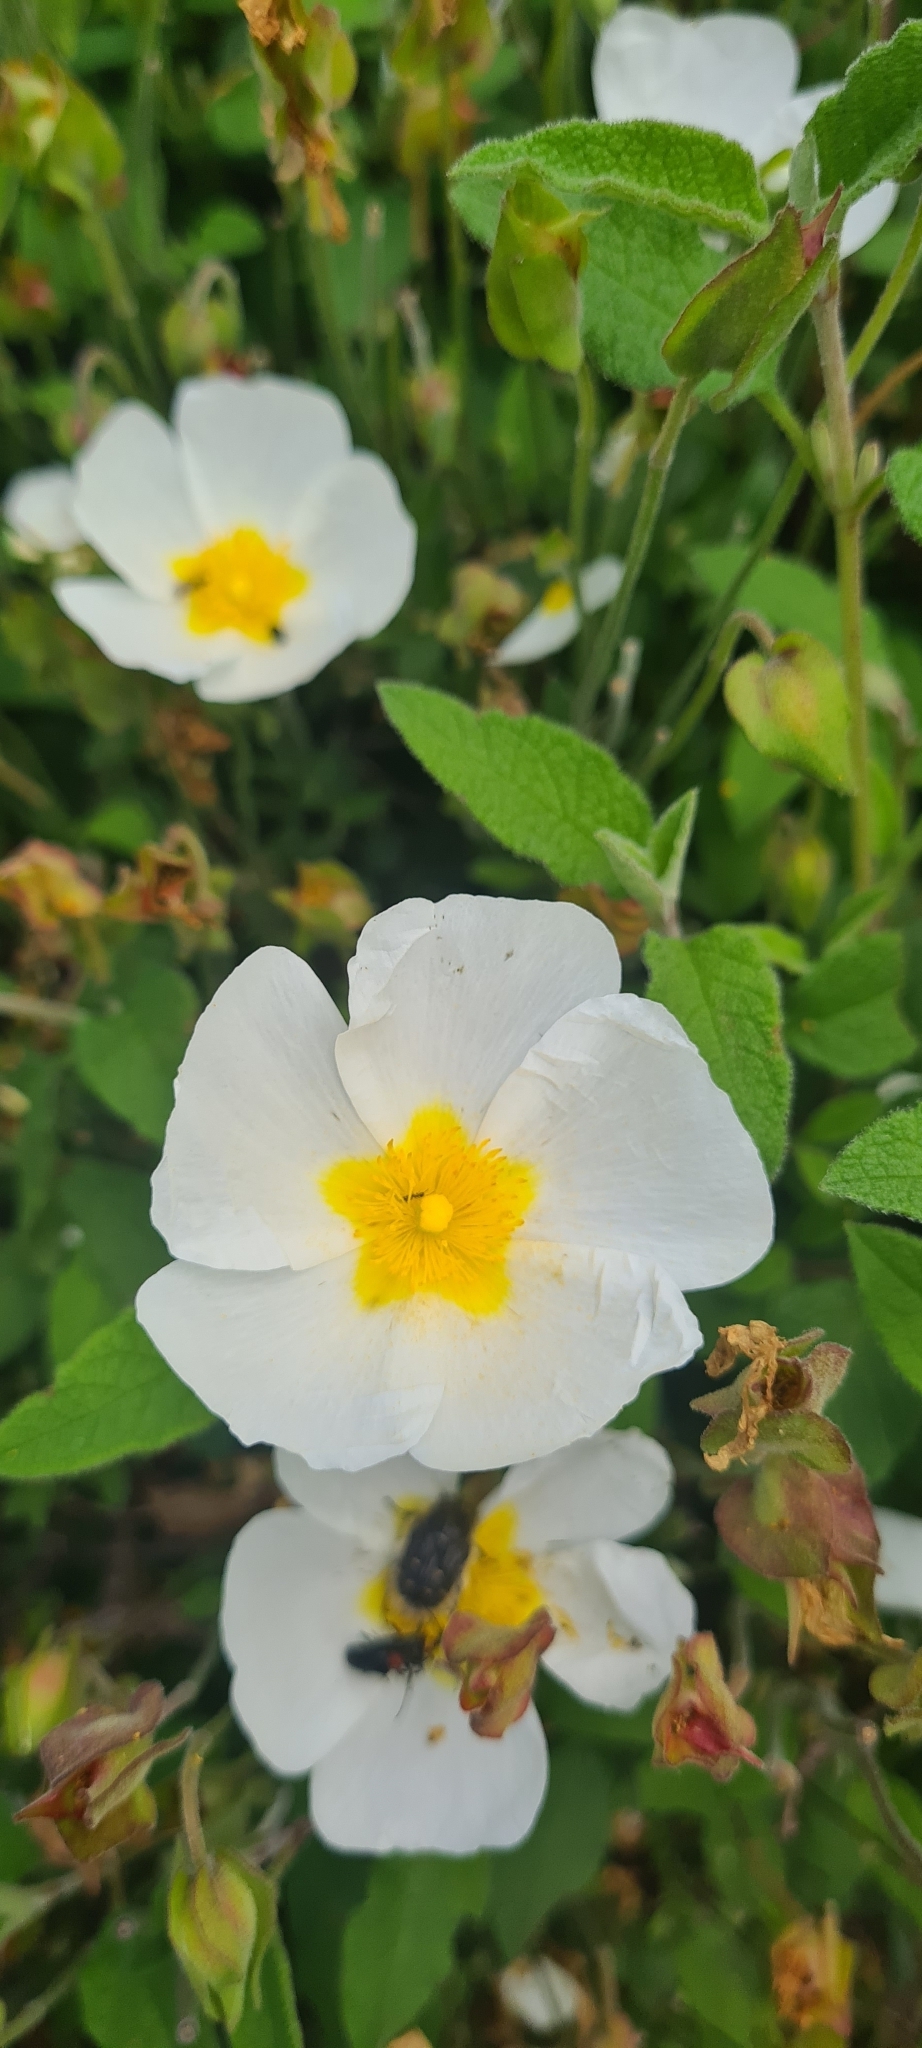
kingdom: Plantae
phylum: Tracheophyta
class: Magnoliopsida
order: Malvales
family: Cistaceae
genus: Cistus
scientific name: Cistus salviifolius
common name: Salvia cistus
